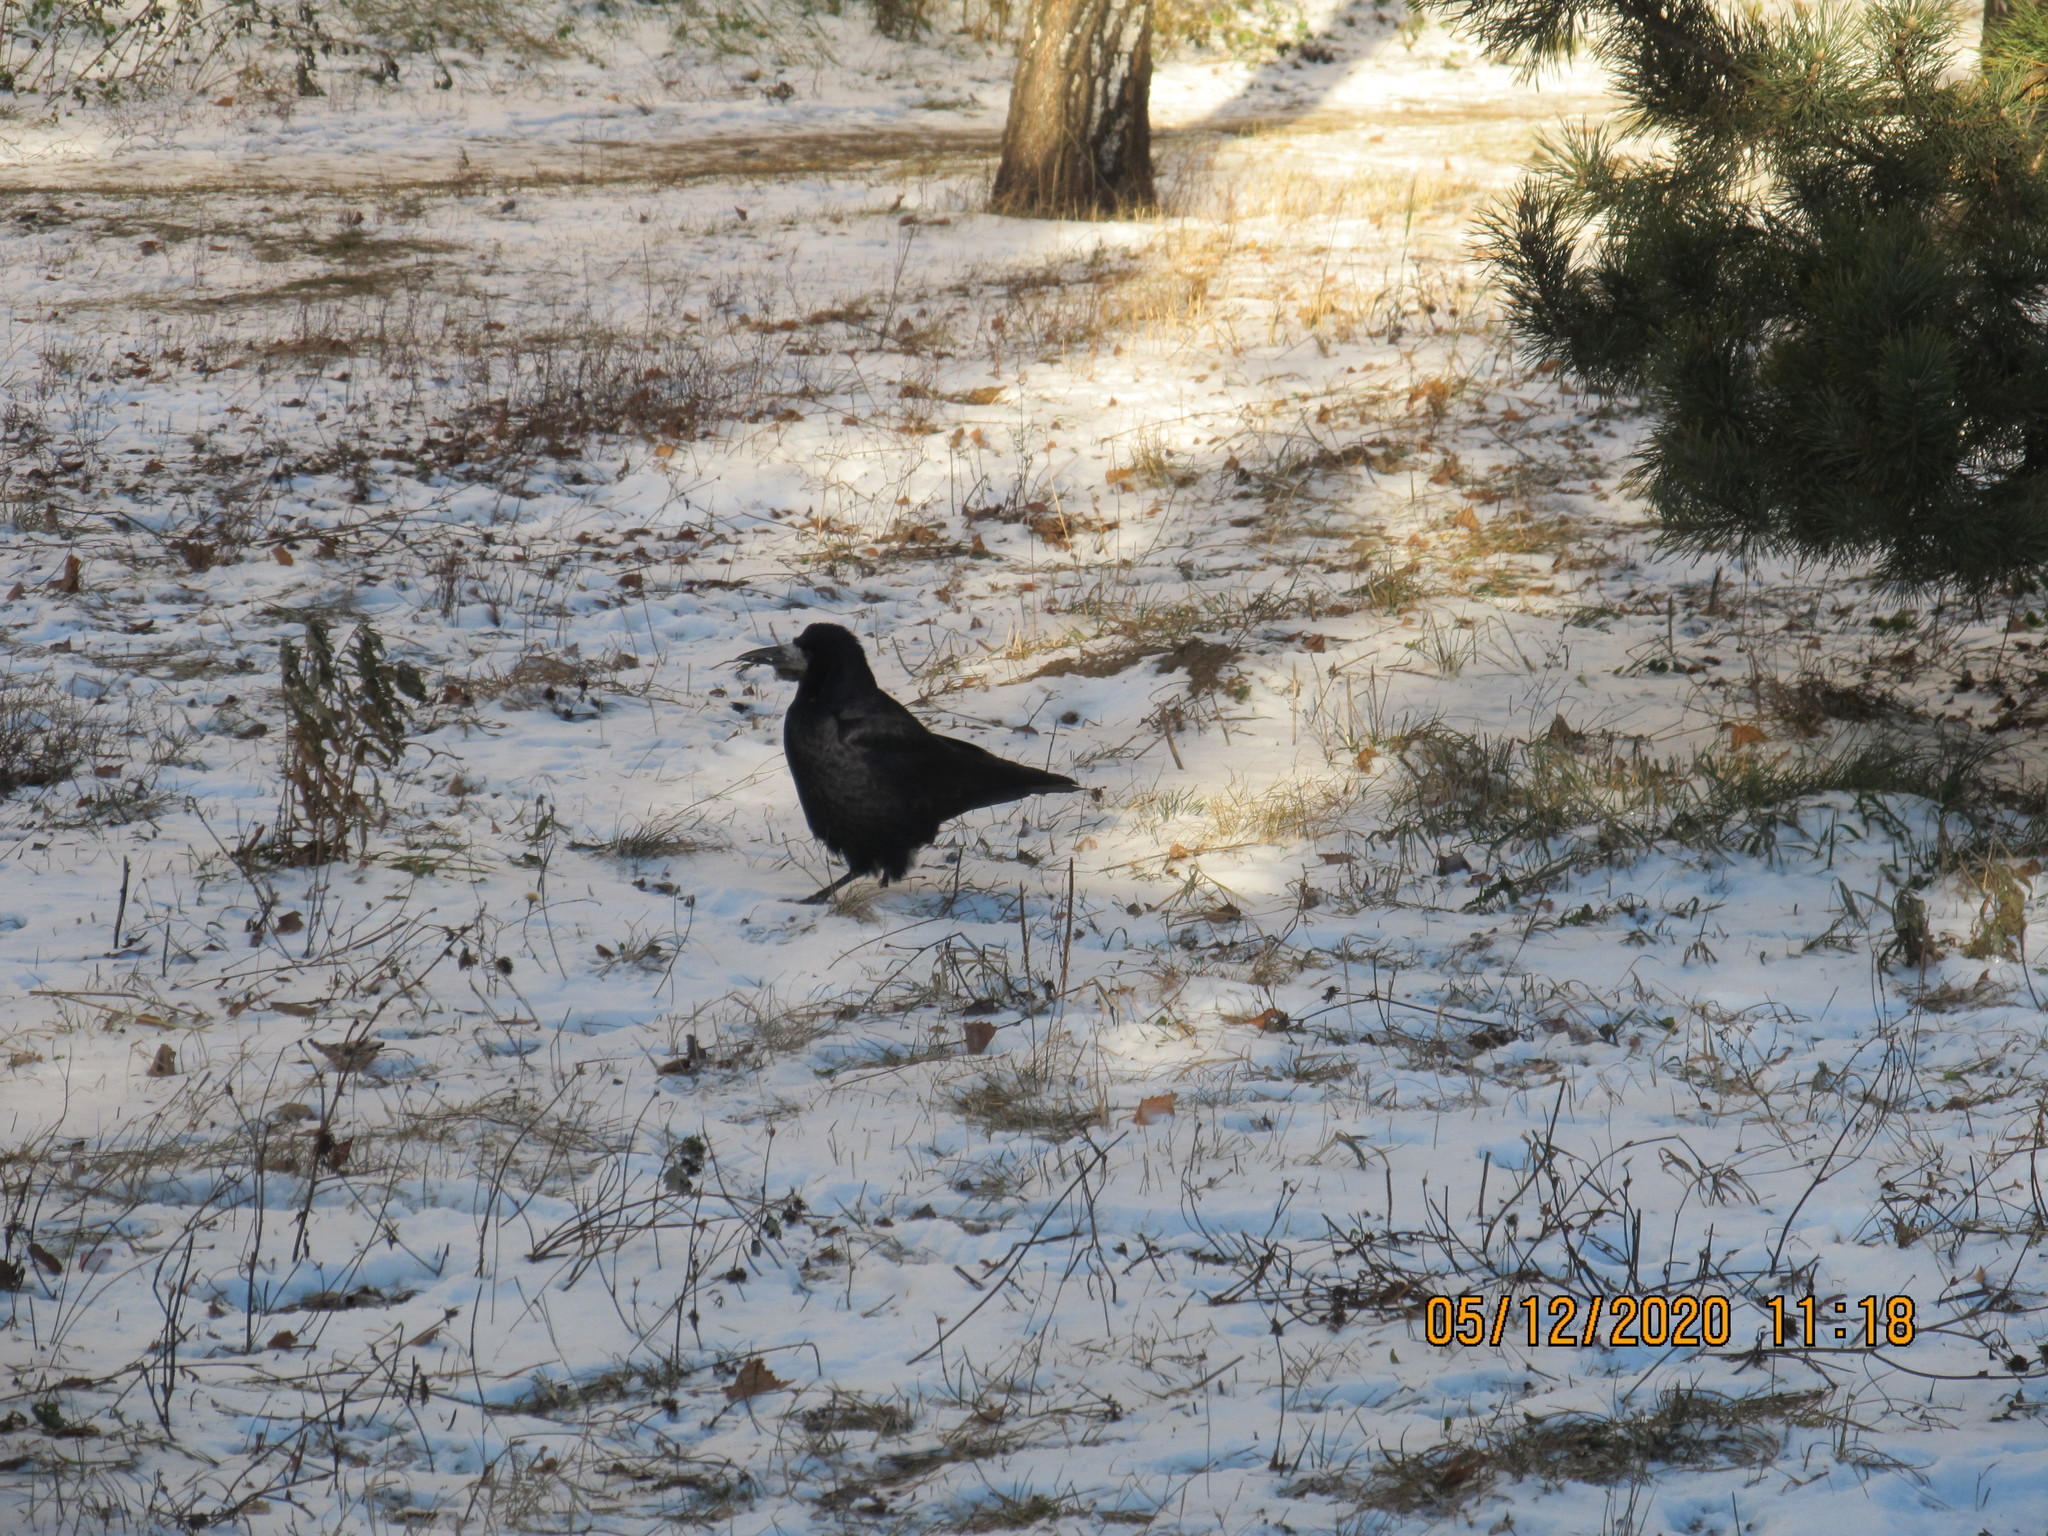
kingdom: Animalia
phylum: Chordata
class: Aves
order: Passeriformes
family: Corvidae
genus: Corvus
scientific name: Corvus frugilegus
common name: Rook
